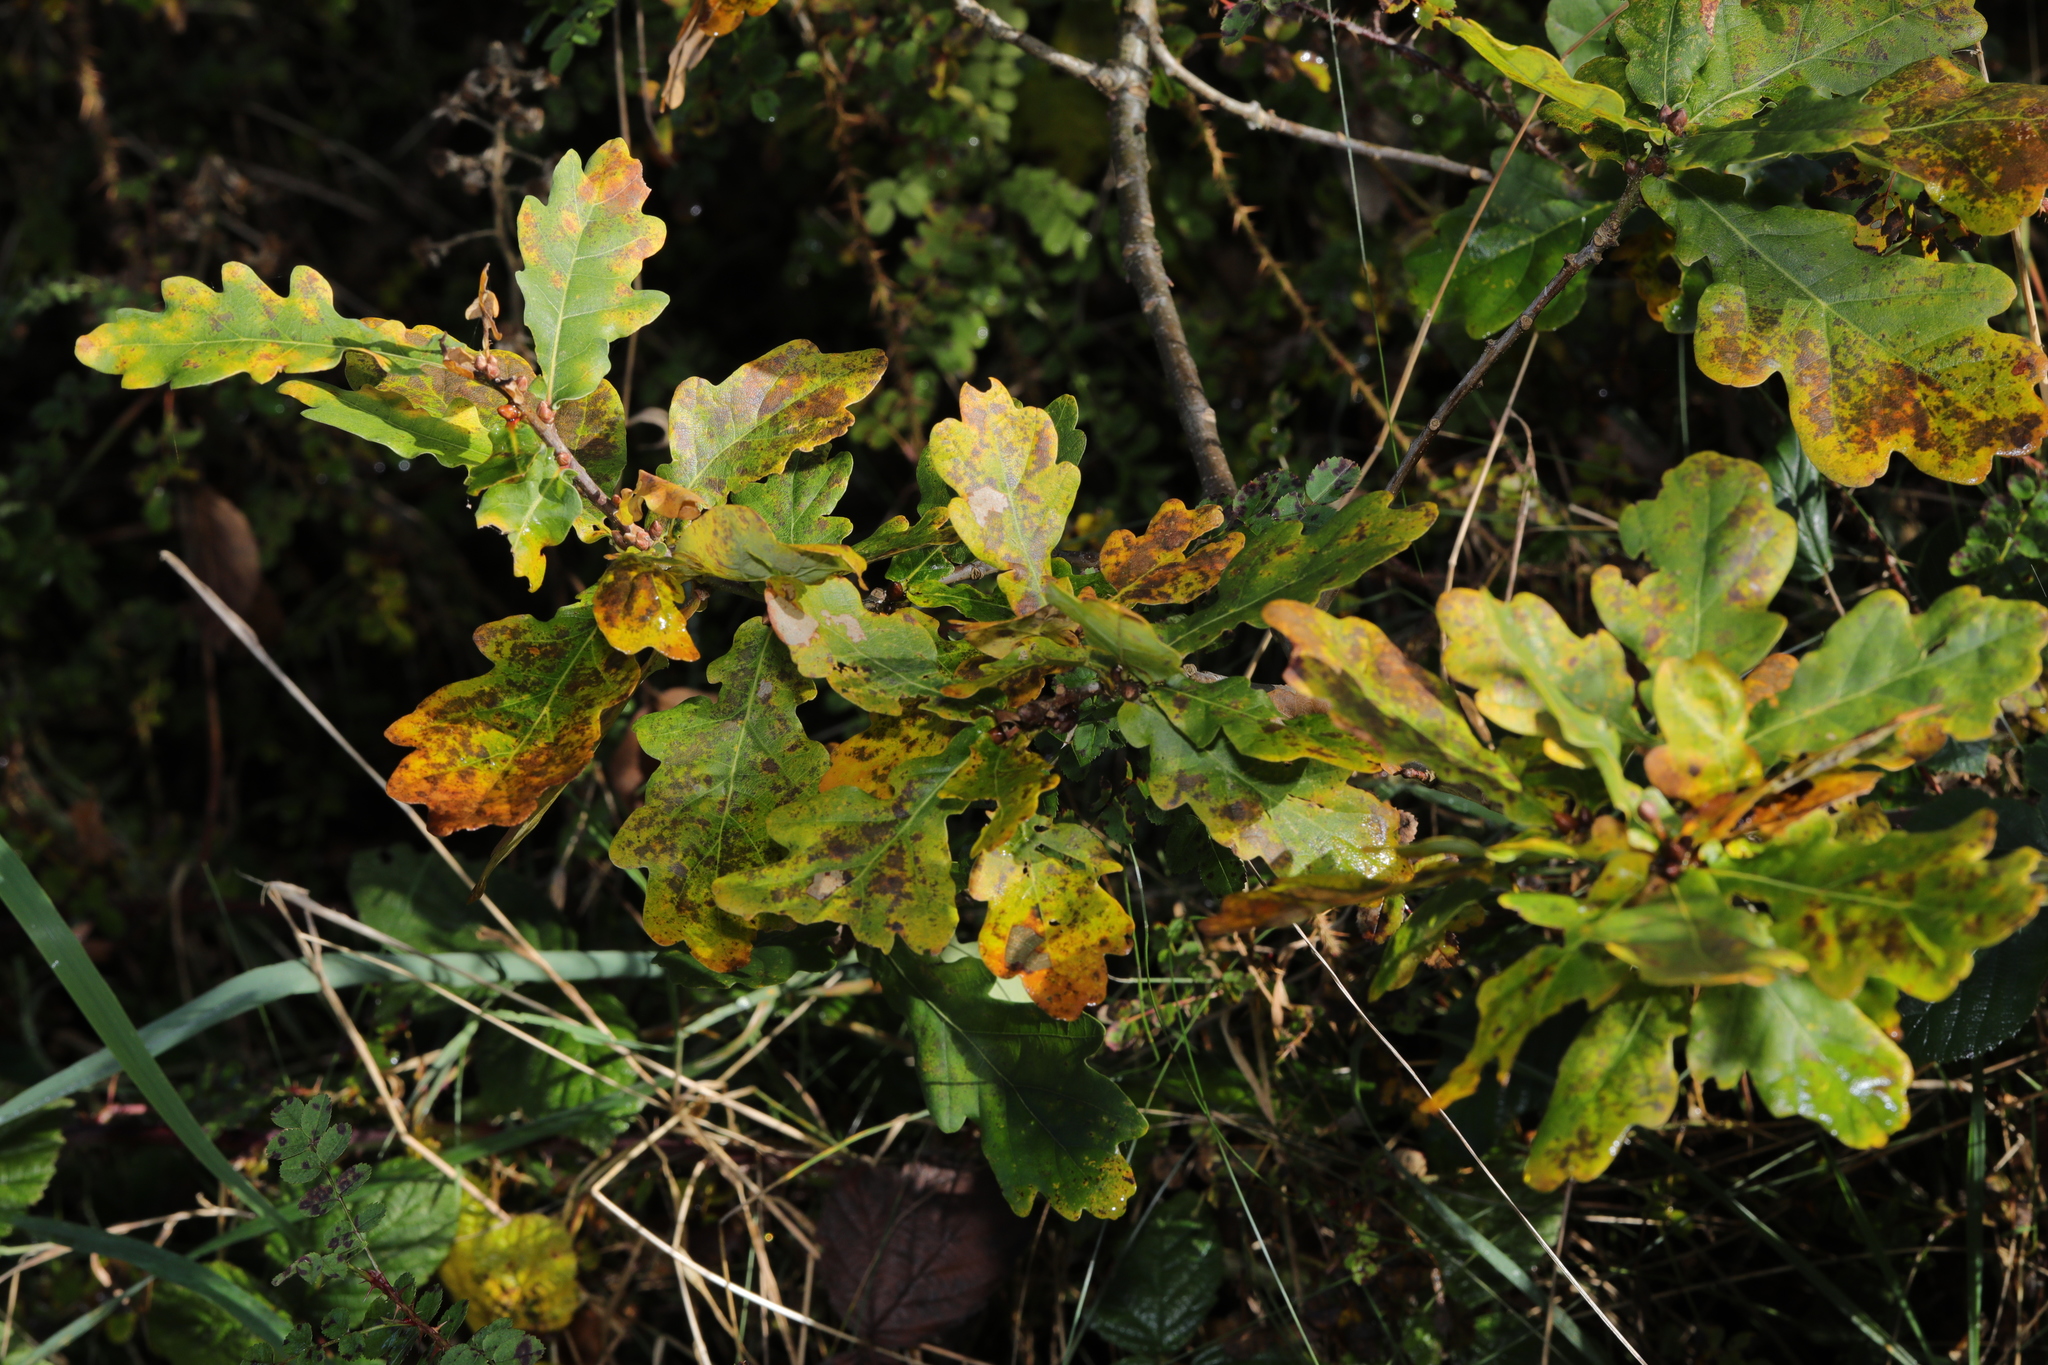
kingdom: Plantae
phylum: Tracheophyta
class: Magnoliopsida
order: Fagales
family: Fagaceae
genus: Quercus
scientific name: Quercus robur
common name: Pedunculate oak
